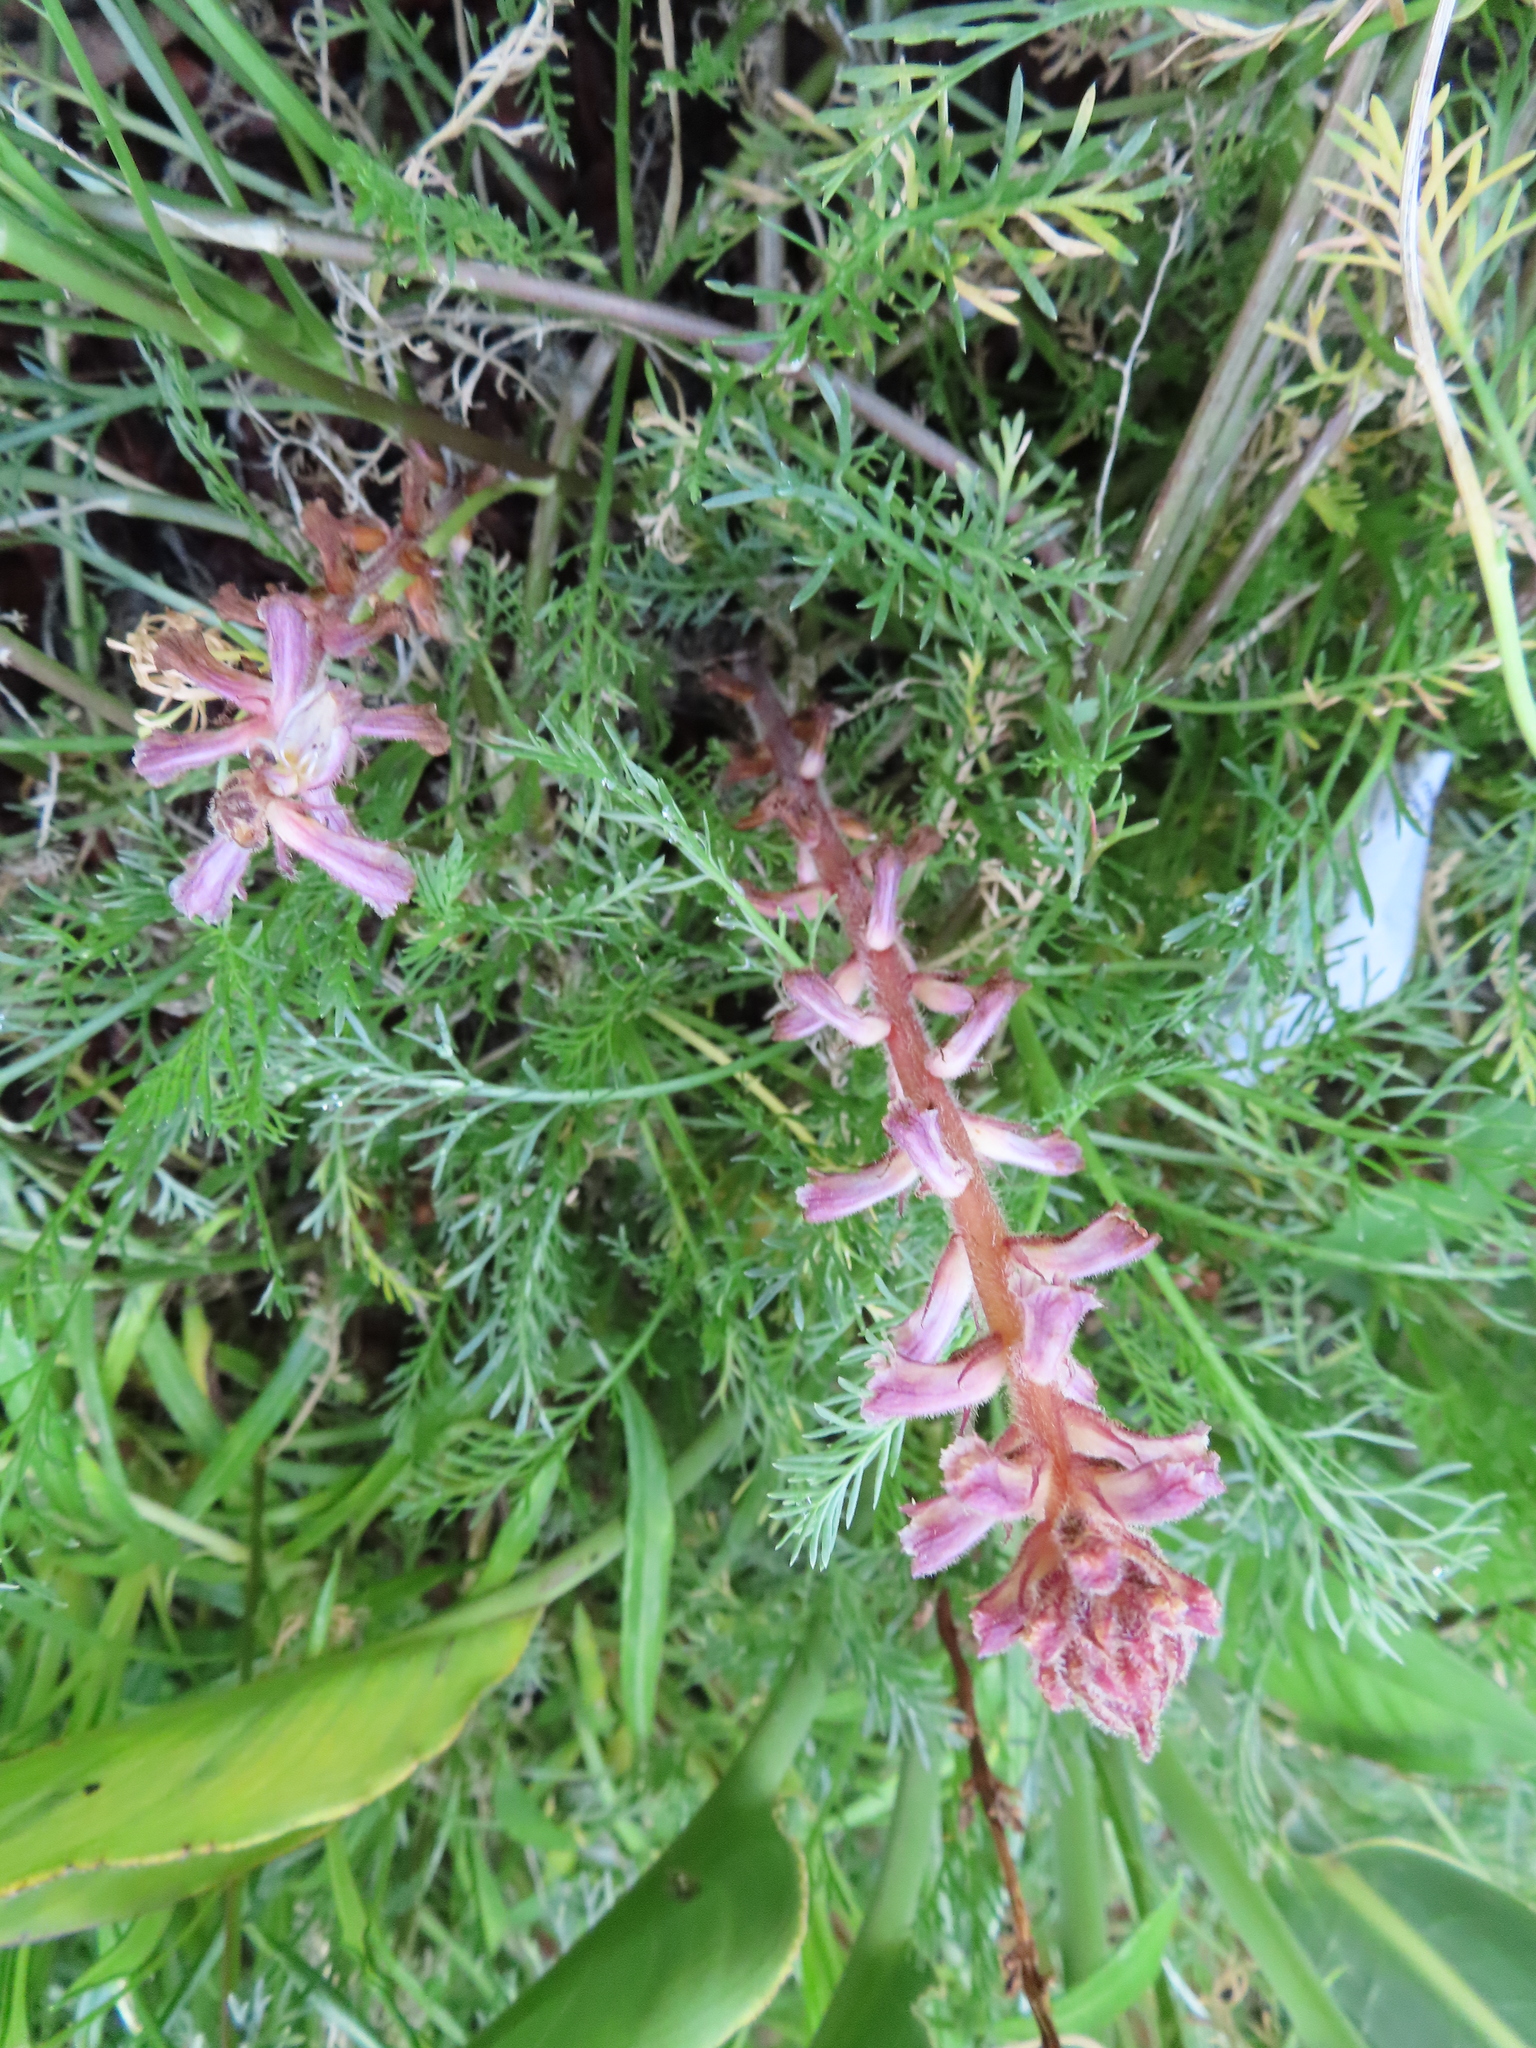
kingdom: Plantae
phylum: Tracheophyta
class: Magnoliopsida
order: Lamiales
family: Orobanchaceae
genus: Orobanche
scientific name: Orobanche minor
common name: Common broomrape
